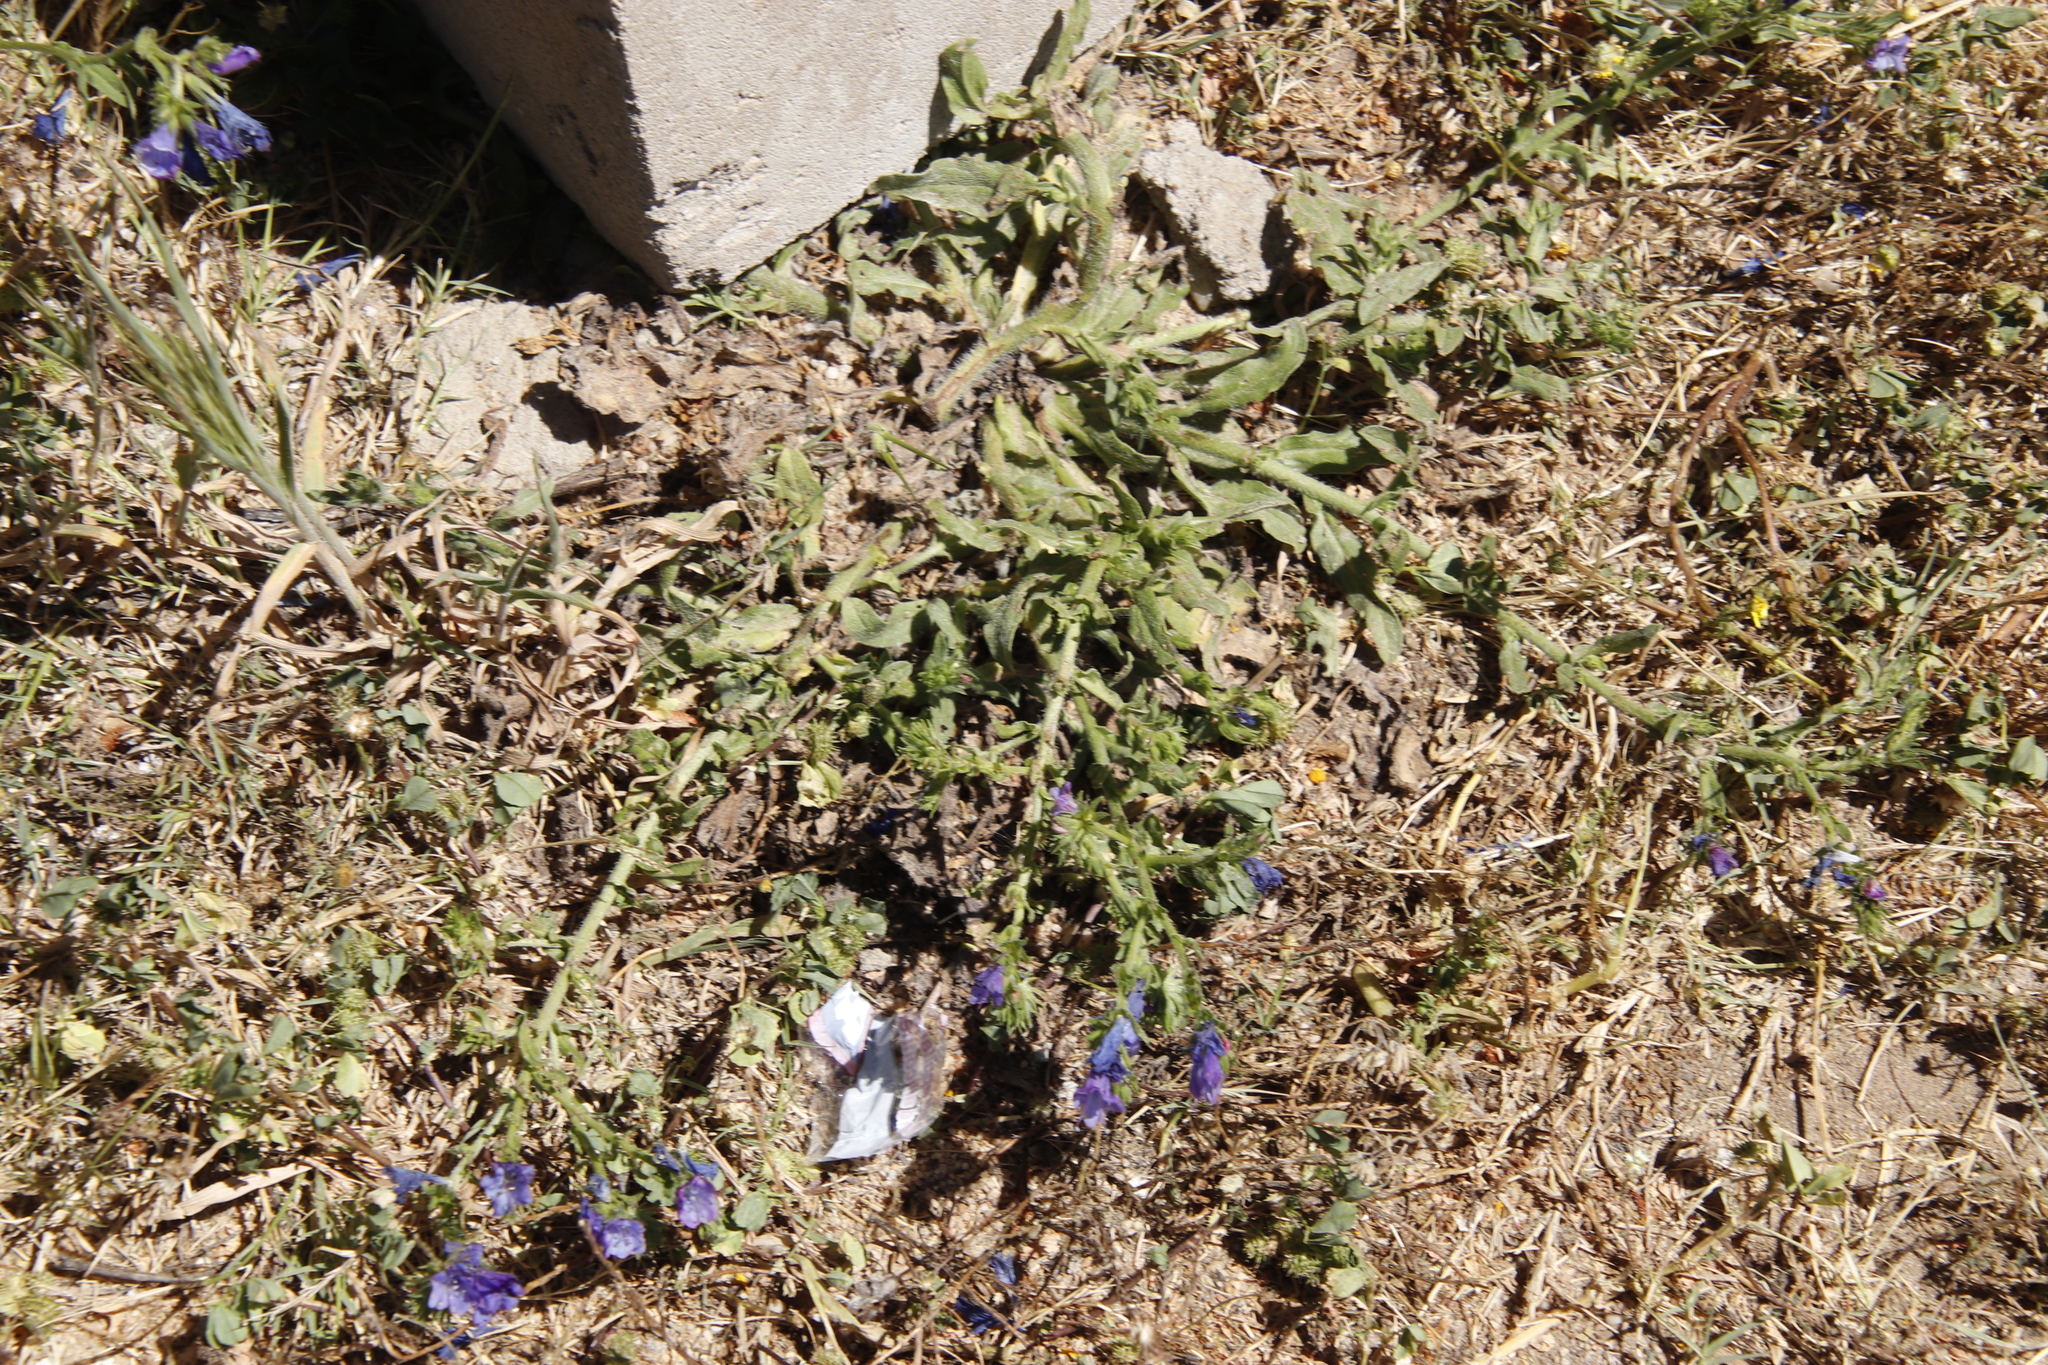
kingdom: Plantae
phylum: Tracheophyta
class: Magnoliopsida
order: Boraginales
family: Boraginaceae
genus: Echium
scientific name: Echium plantagineum
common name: Purple viper's-bugloss
